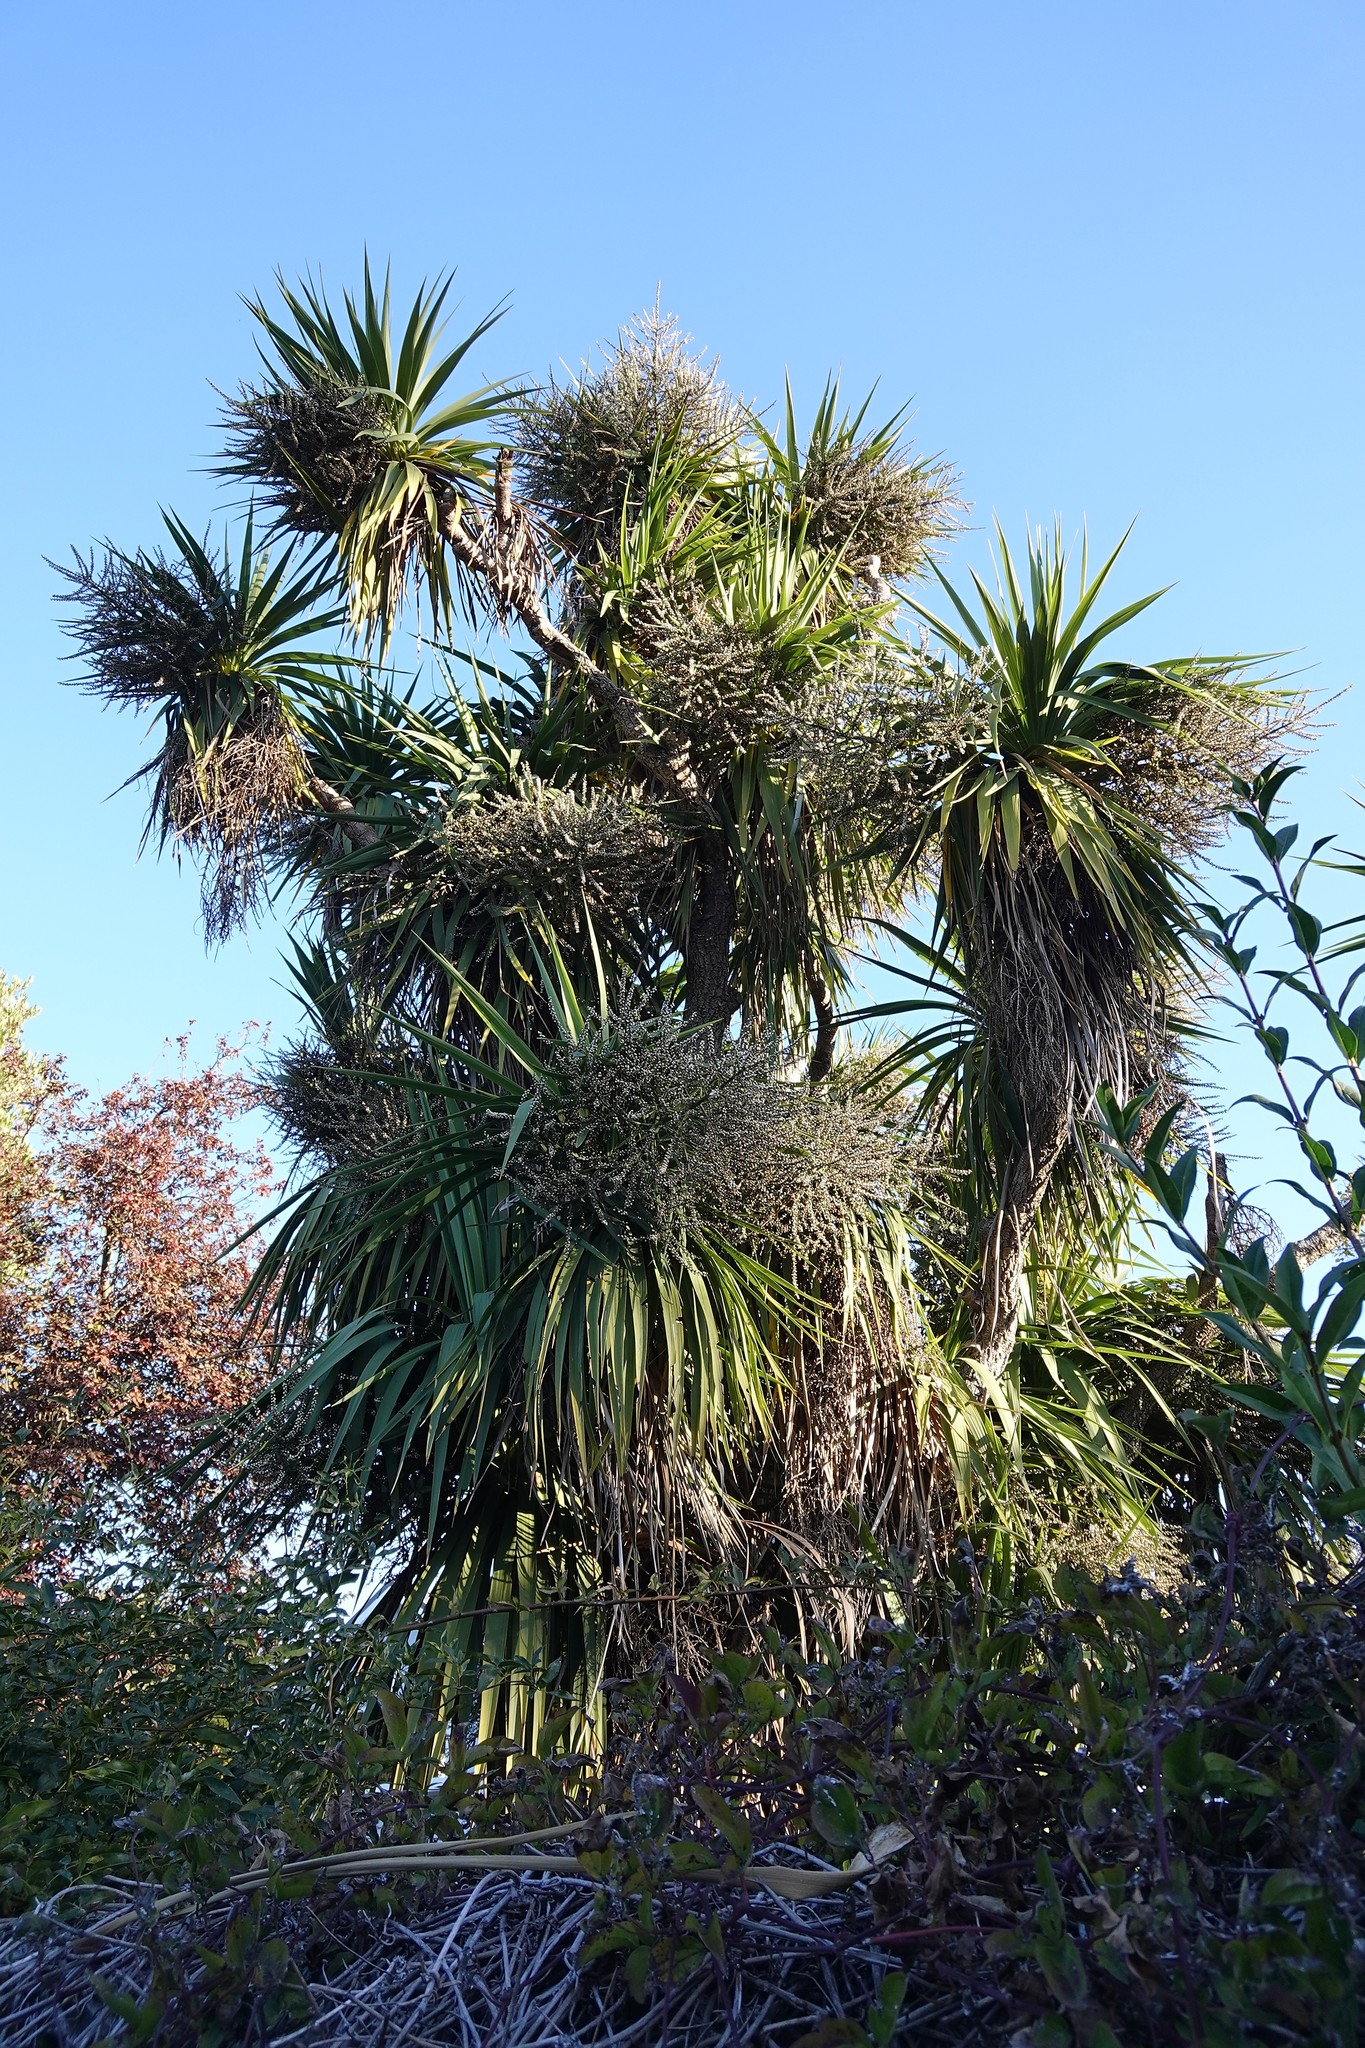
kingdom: Plantae
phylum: Tracheophyta
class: Liliopsida
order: Asparagales
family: Asparagaceae
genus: Cordyline
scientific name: Cordyline australis
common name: Cabbage-palm
